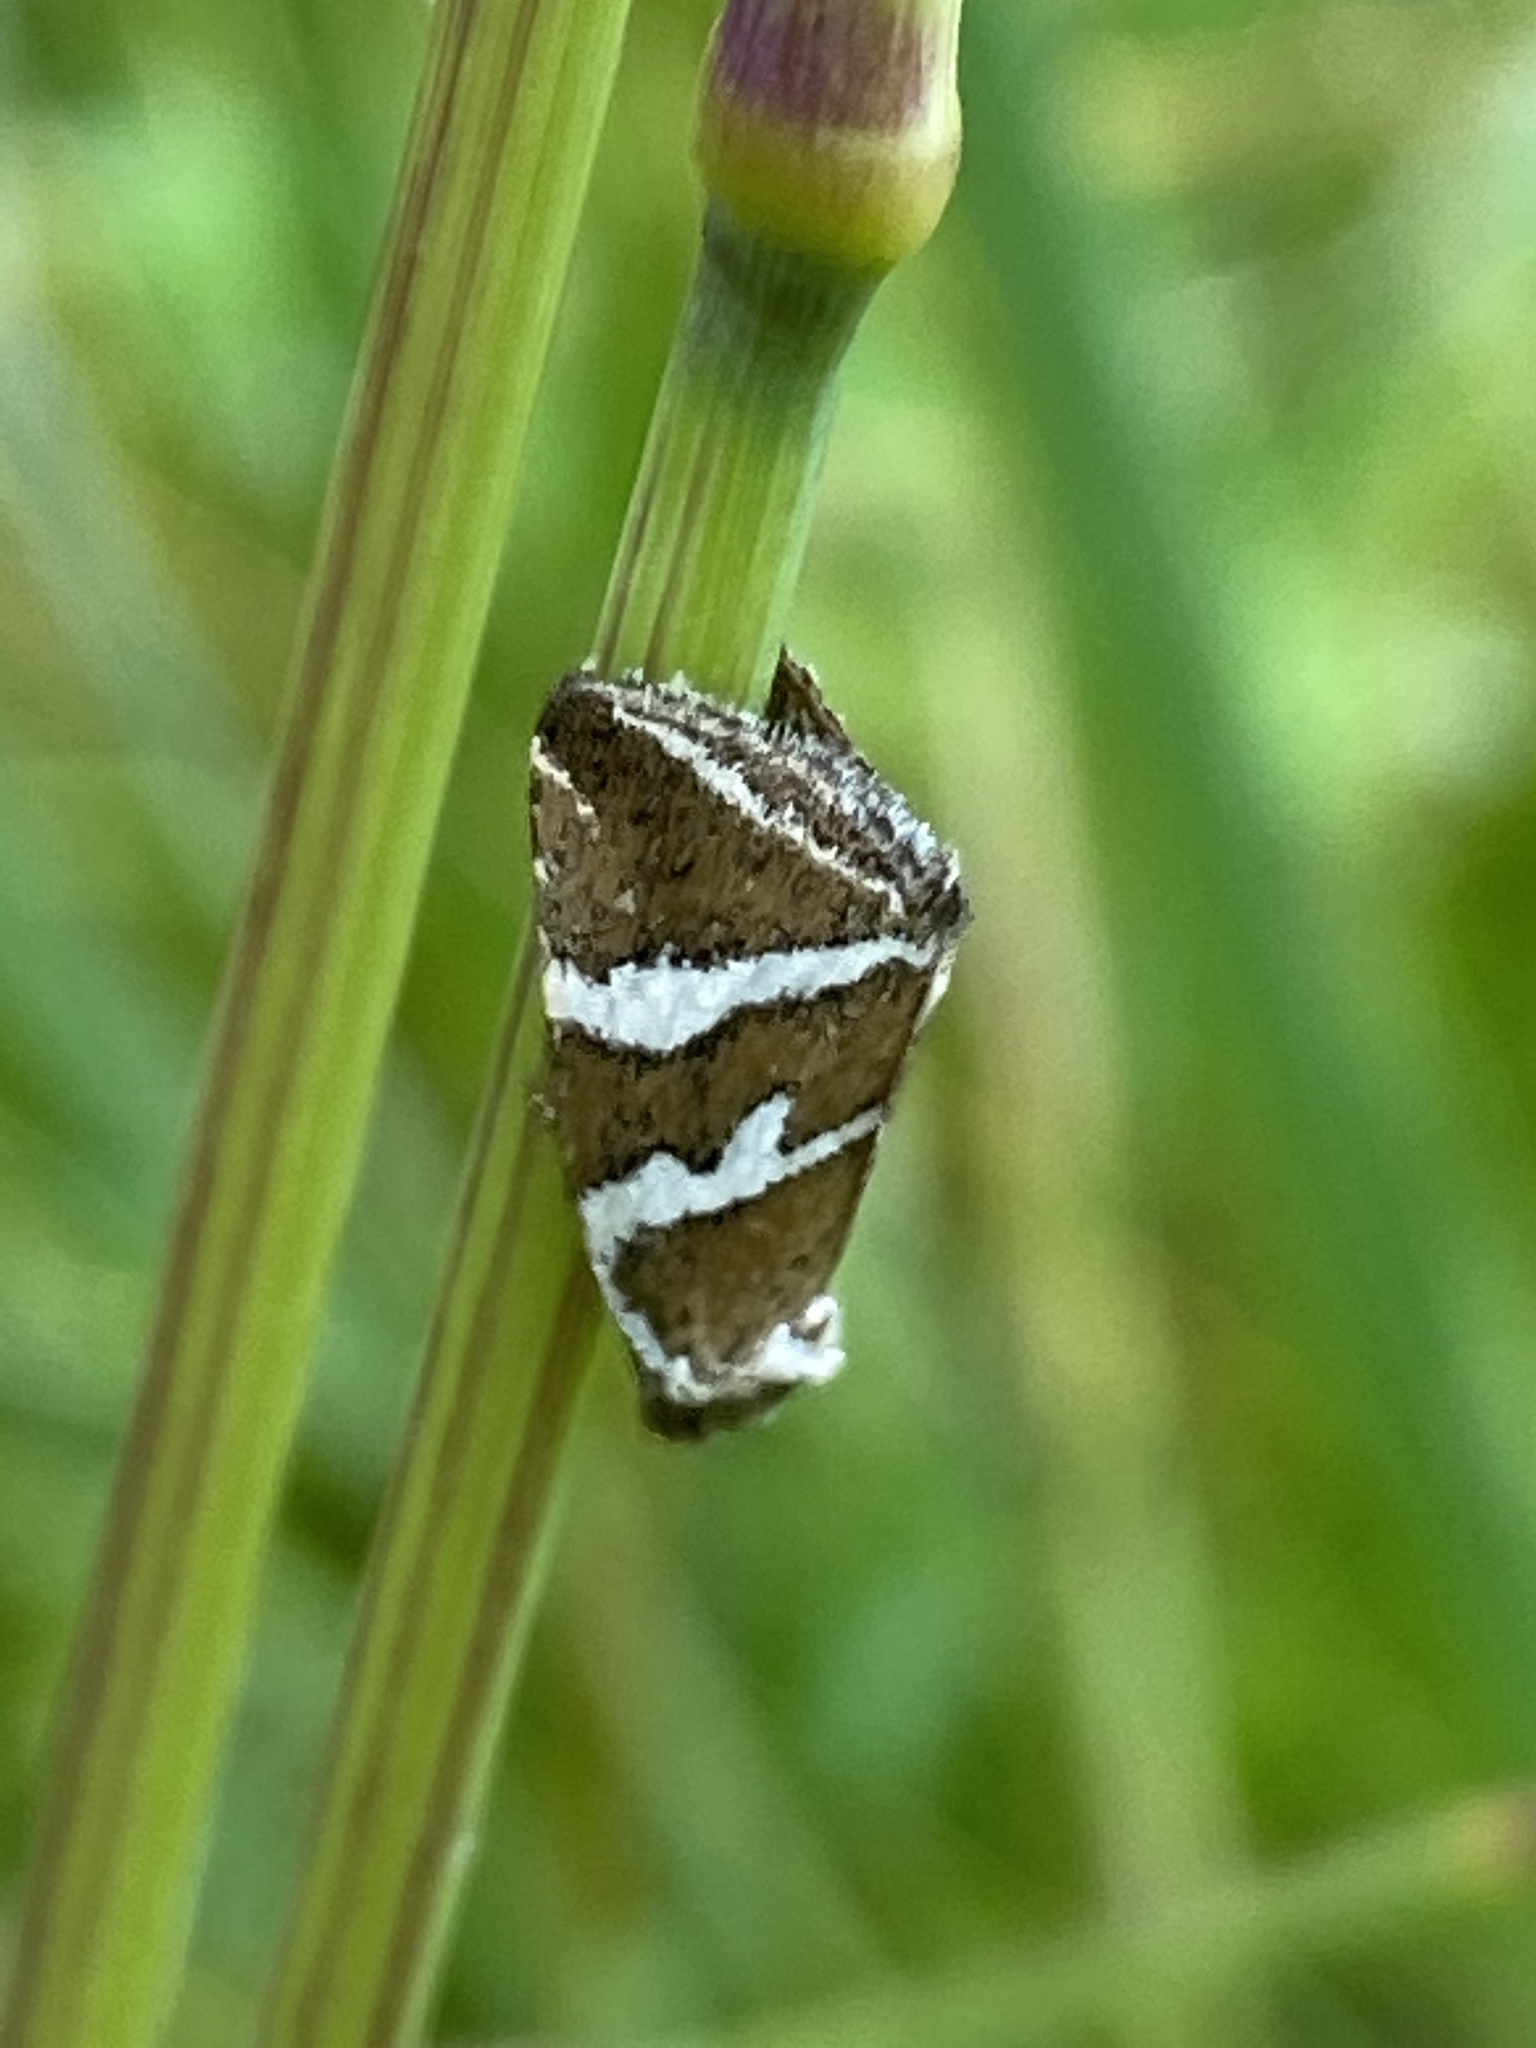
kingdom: Animalia
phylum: Arthropoda
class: Insecta
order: Lepidoptera
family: Noctuidae
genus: Deltote
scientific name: Deltote bankiana
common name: Silver barred
